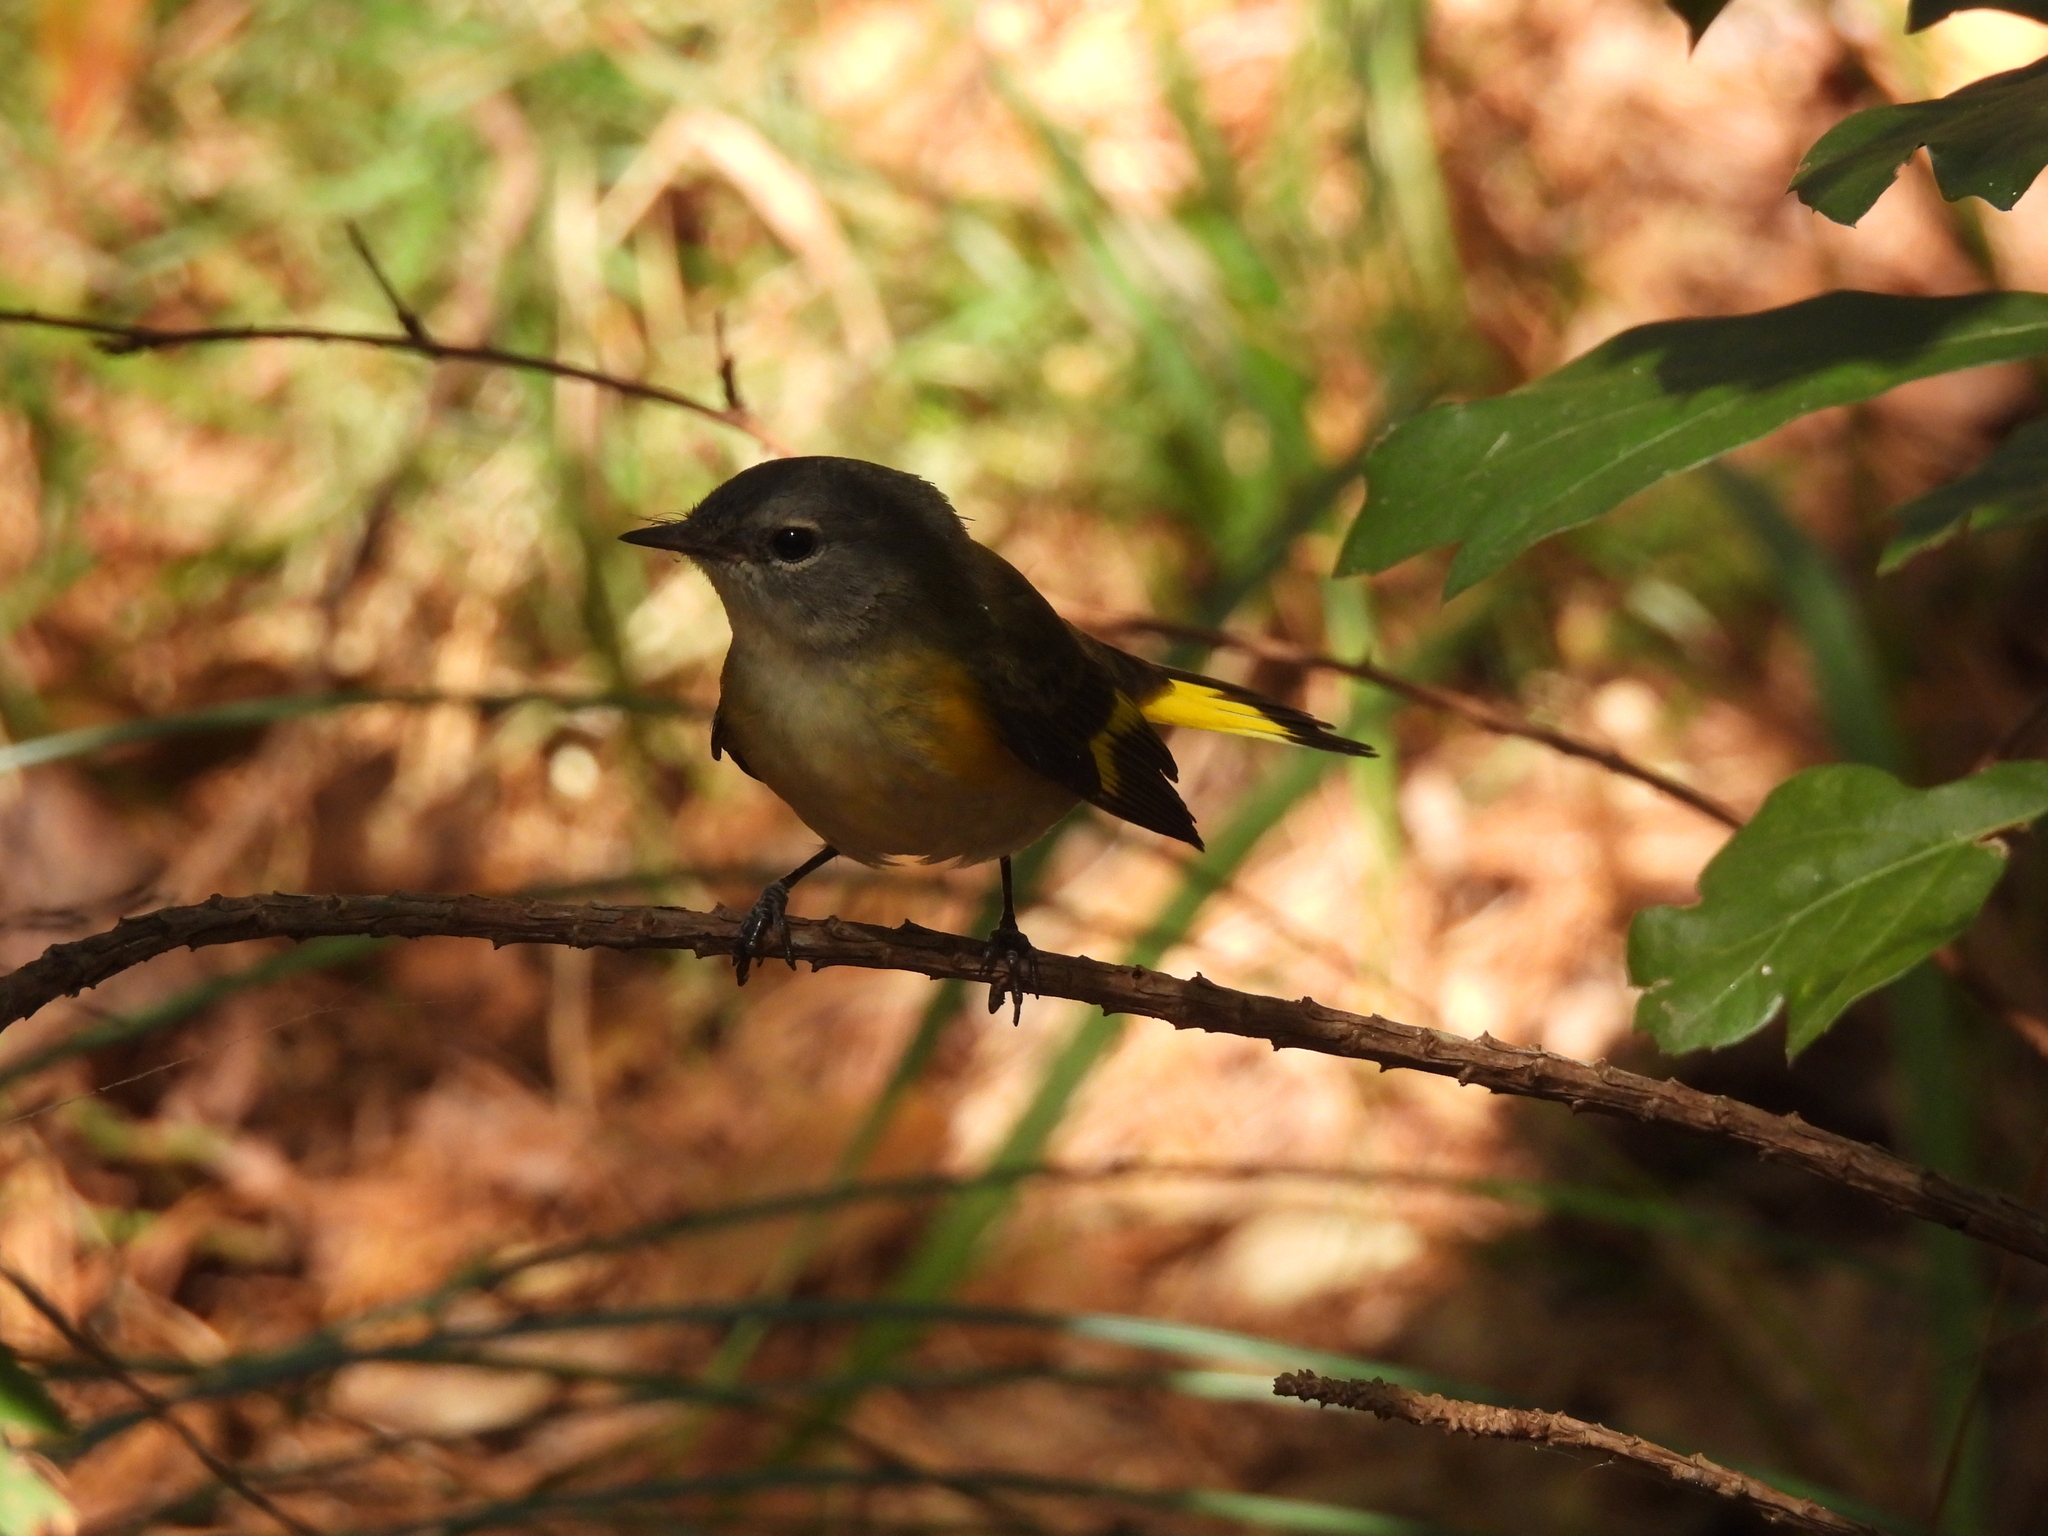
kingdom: Animalia
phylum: Chordata
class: Aves
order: Passeriformes
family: Parulidae
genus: Setophaga
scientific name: Setophaga ruticilla
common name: American redstart
